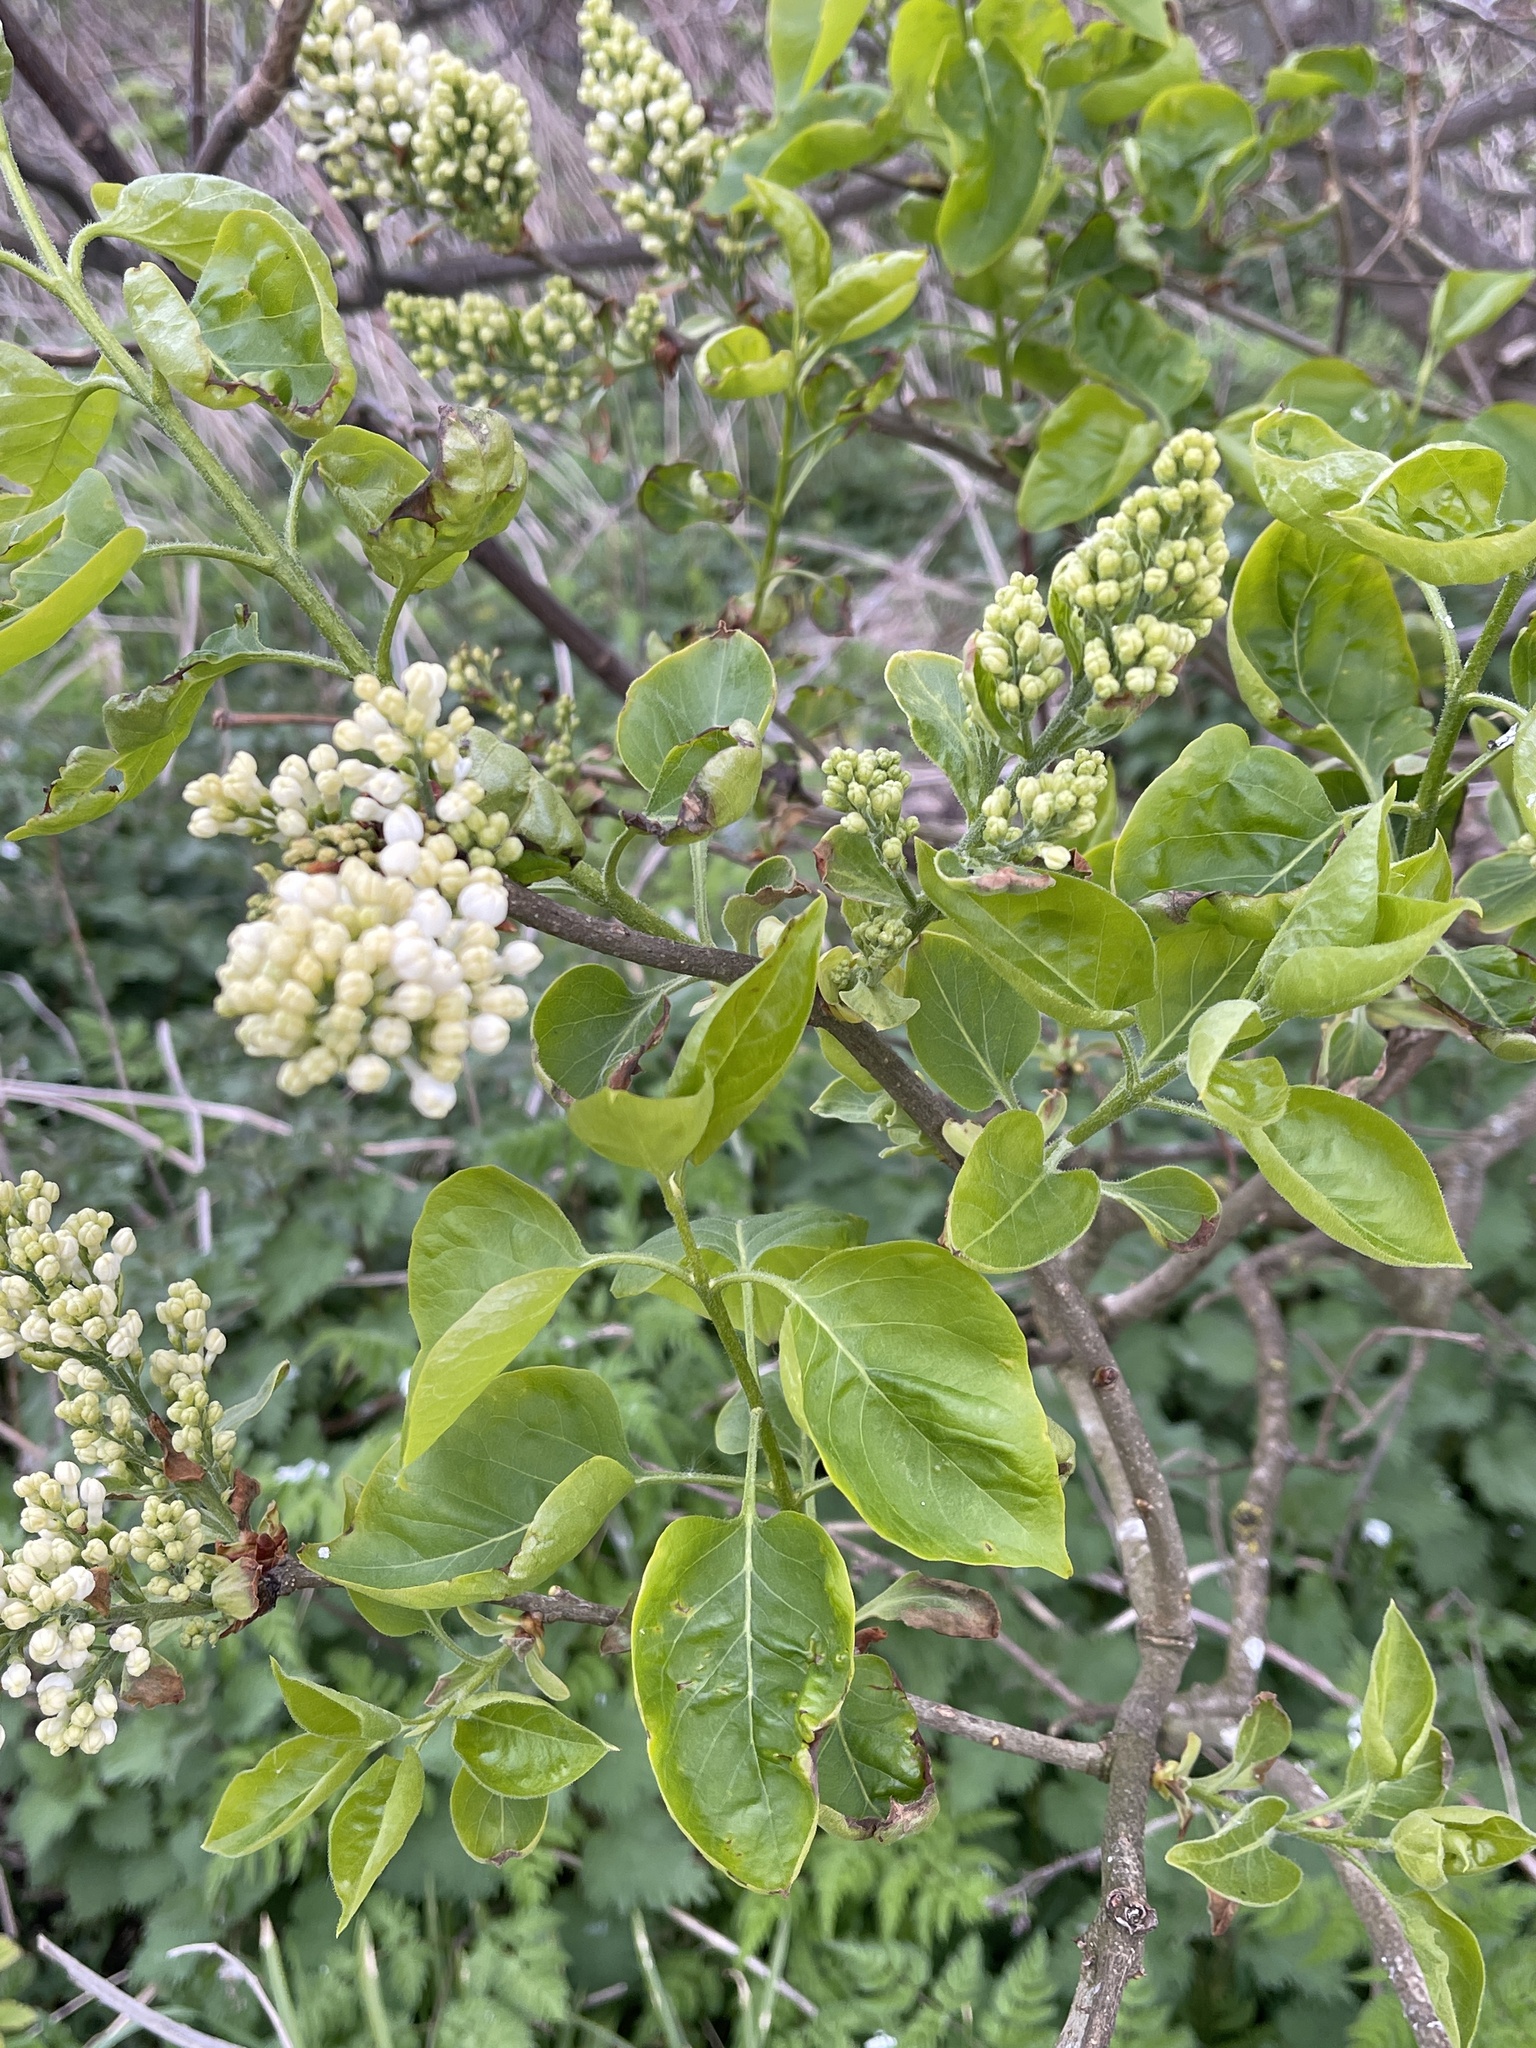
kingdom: Plantae
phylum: Tracheophyta
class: Magnoliopsida
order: Lamiales
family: Oleaceae
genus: Syringa
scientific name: Syringa vulgaris
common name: Common lilac
